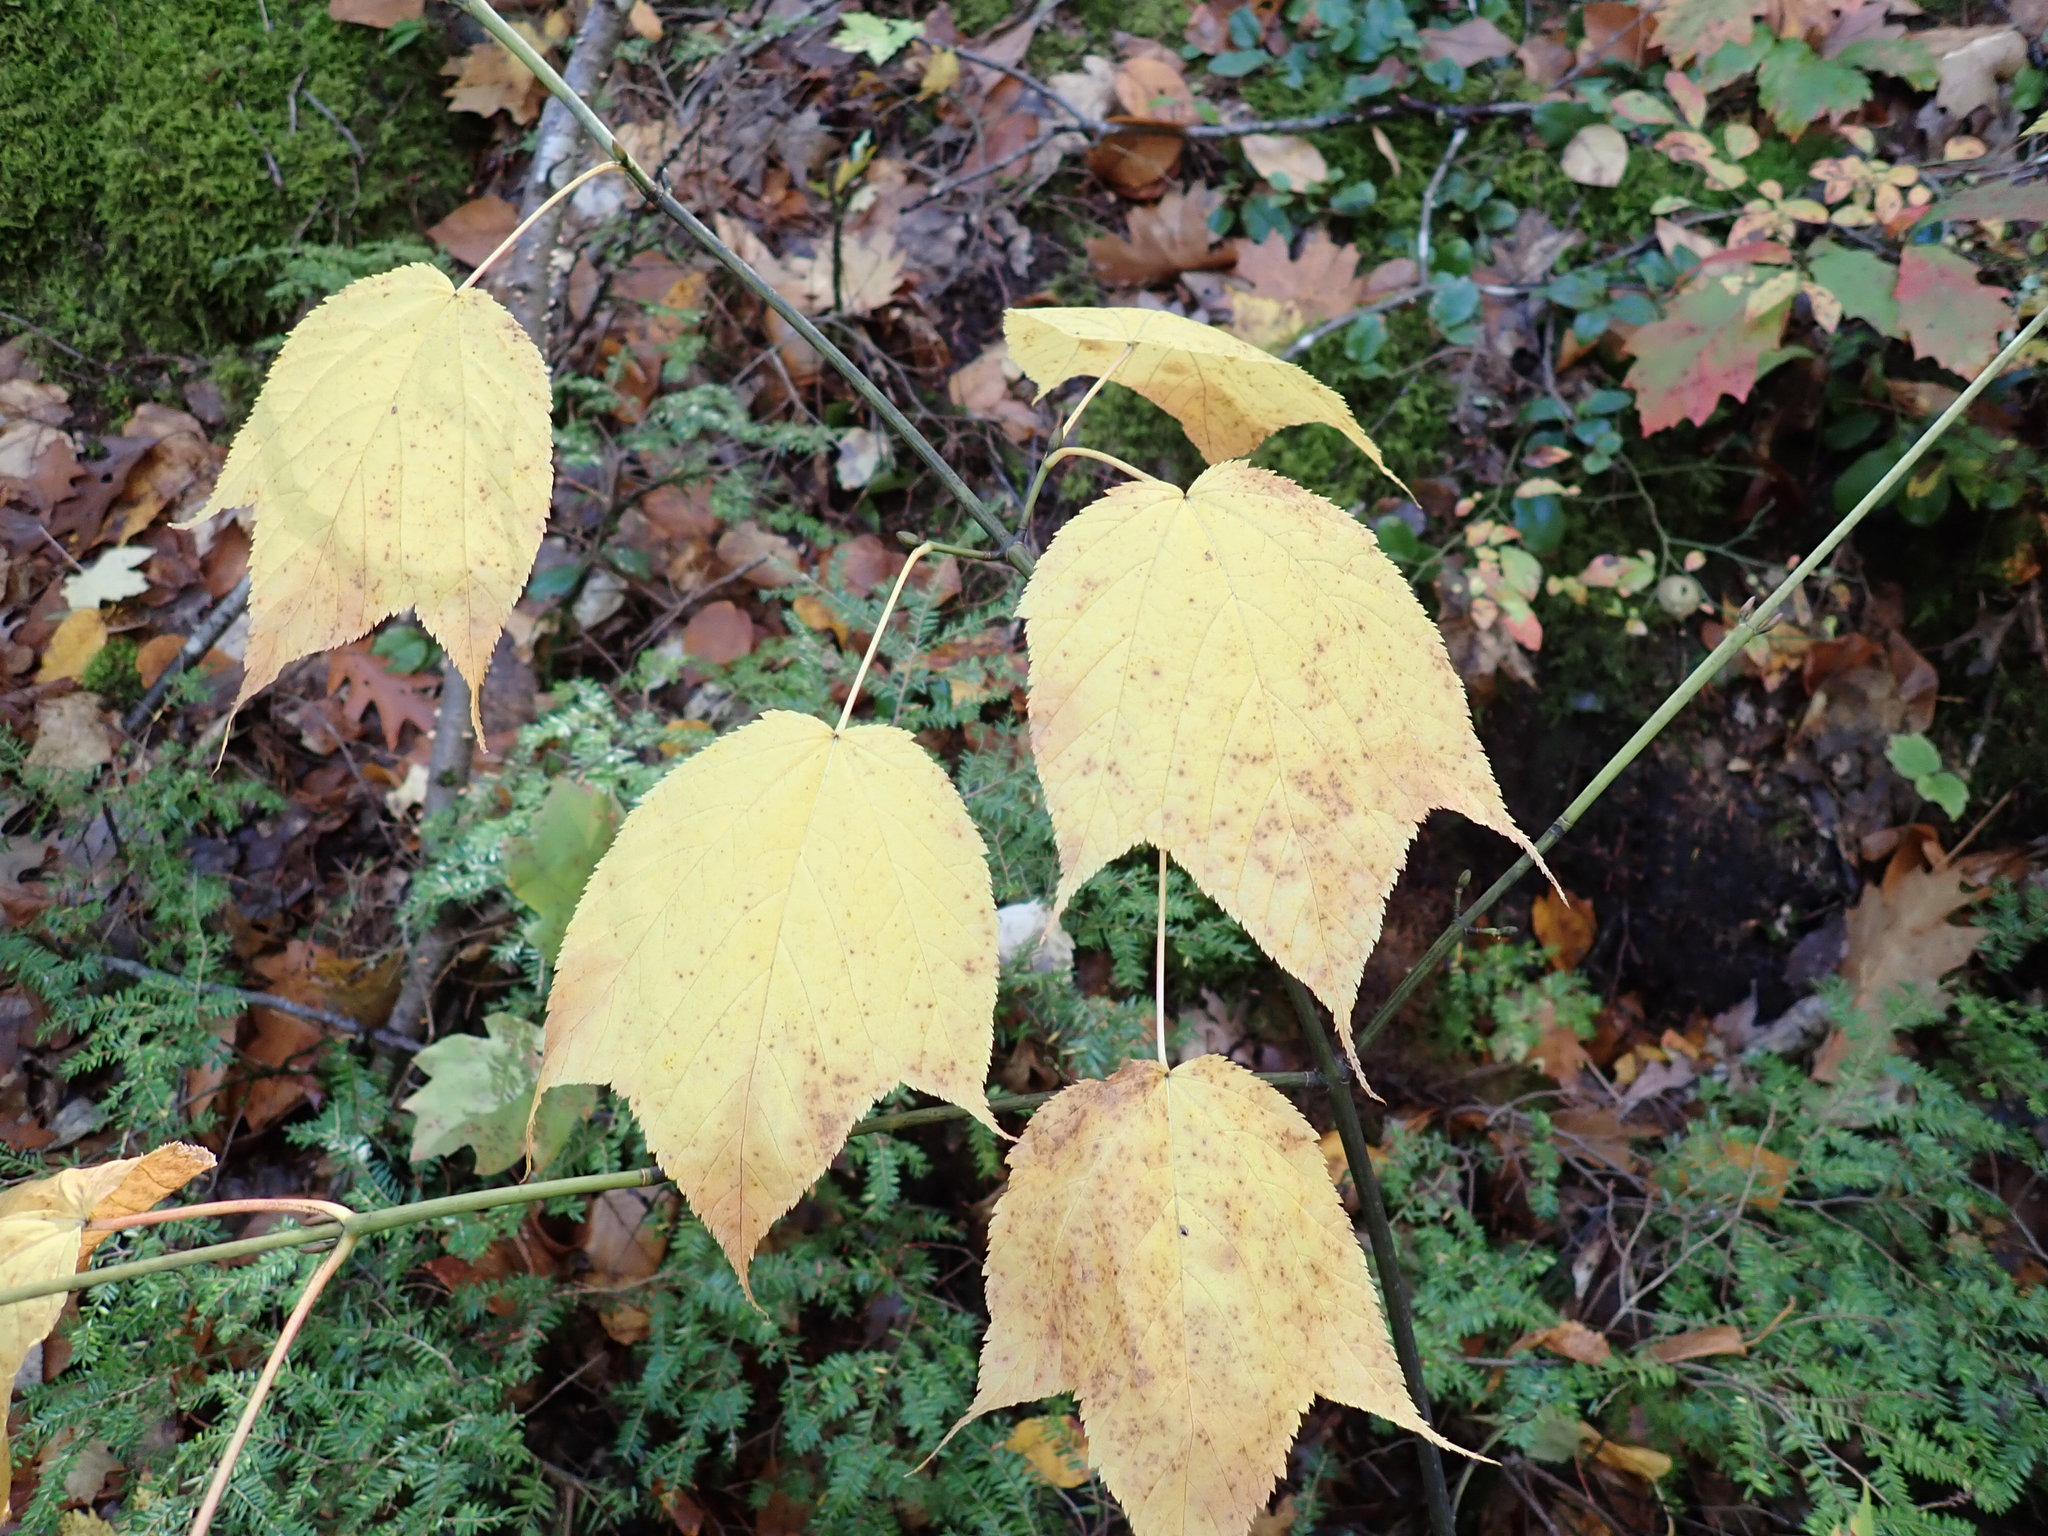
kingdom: Plantae
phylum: Tracheophyta
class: Magnoliopsida
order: Sapindales
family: Sapindaceae
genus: Acer
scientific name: Acer pensylvanicum
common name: Moosewood
